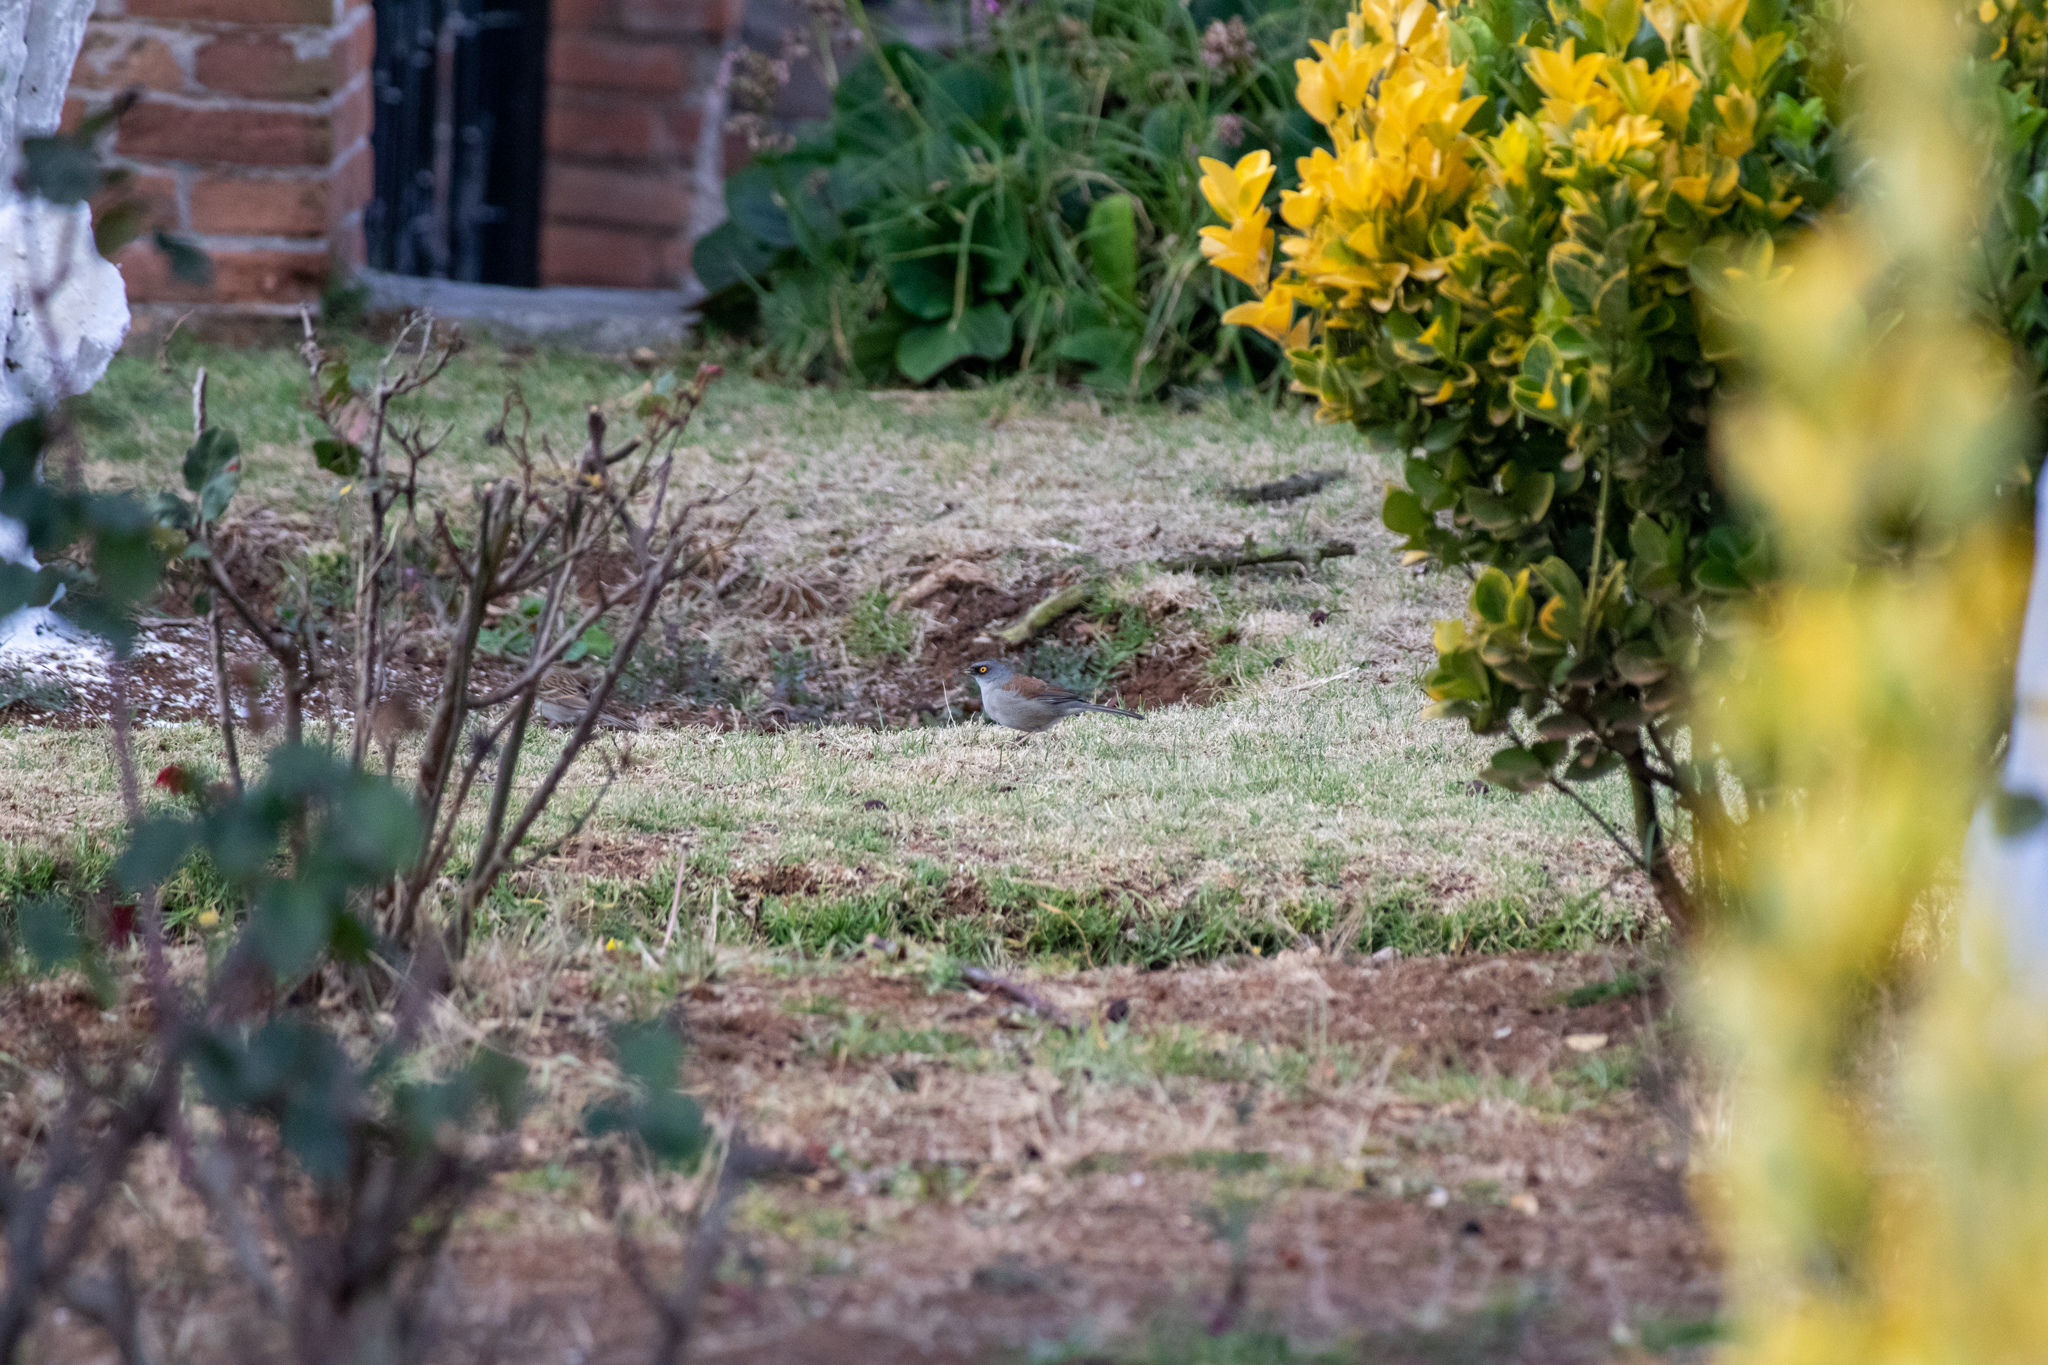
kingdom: Animalia
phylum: Chordata
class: Aves
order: Passeriformes
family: Passerellidae
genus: Junco
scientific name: Junco phaeonotus
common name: Yellow-eyed junco
